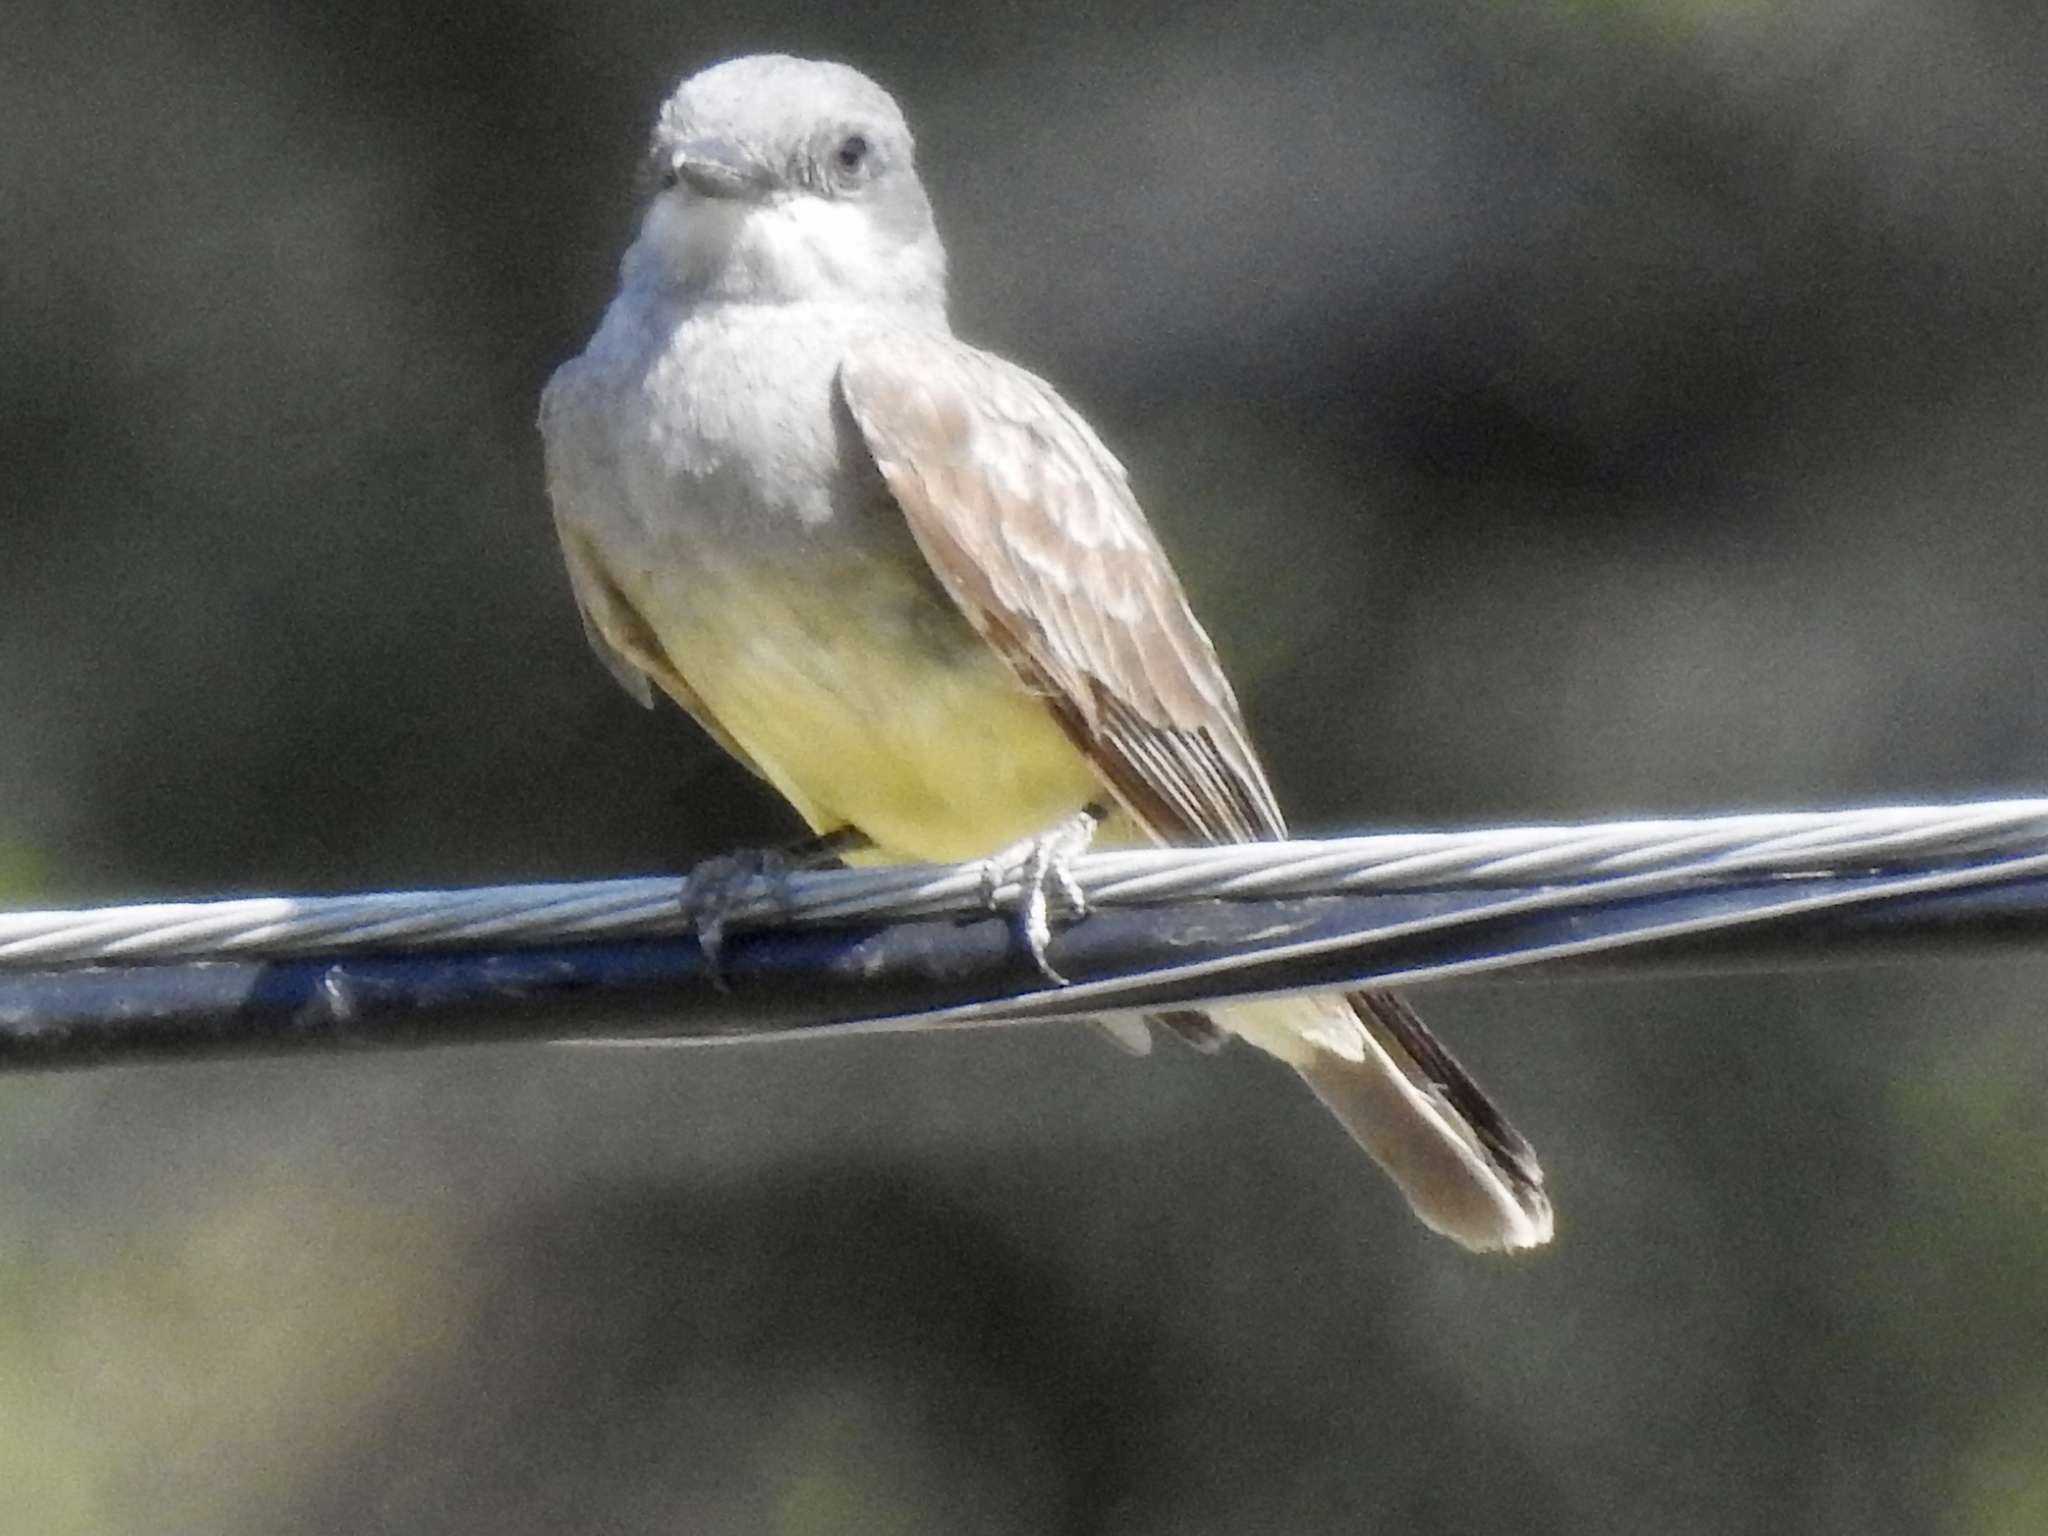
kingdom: Animalia
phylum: Chordata
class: Aves
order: Passeriformes
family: Tyrannidae
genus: Tyrannus
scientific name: Tyrannus vociferans
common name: Cassin's kingbird
